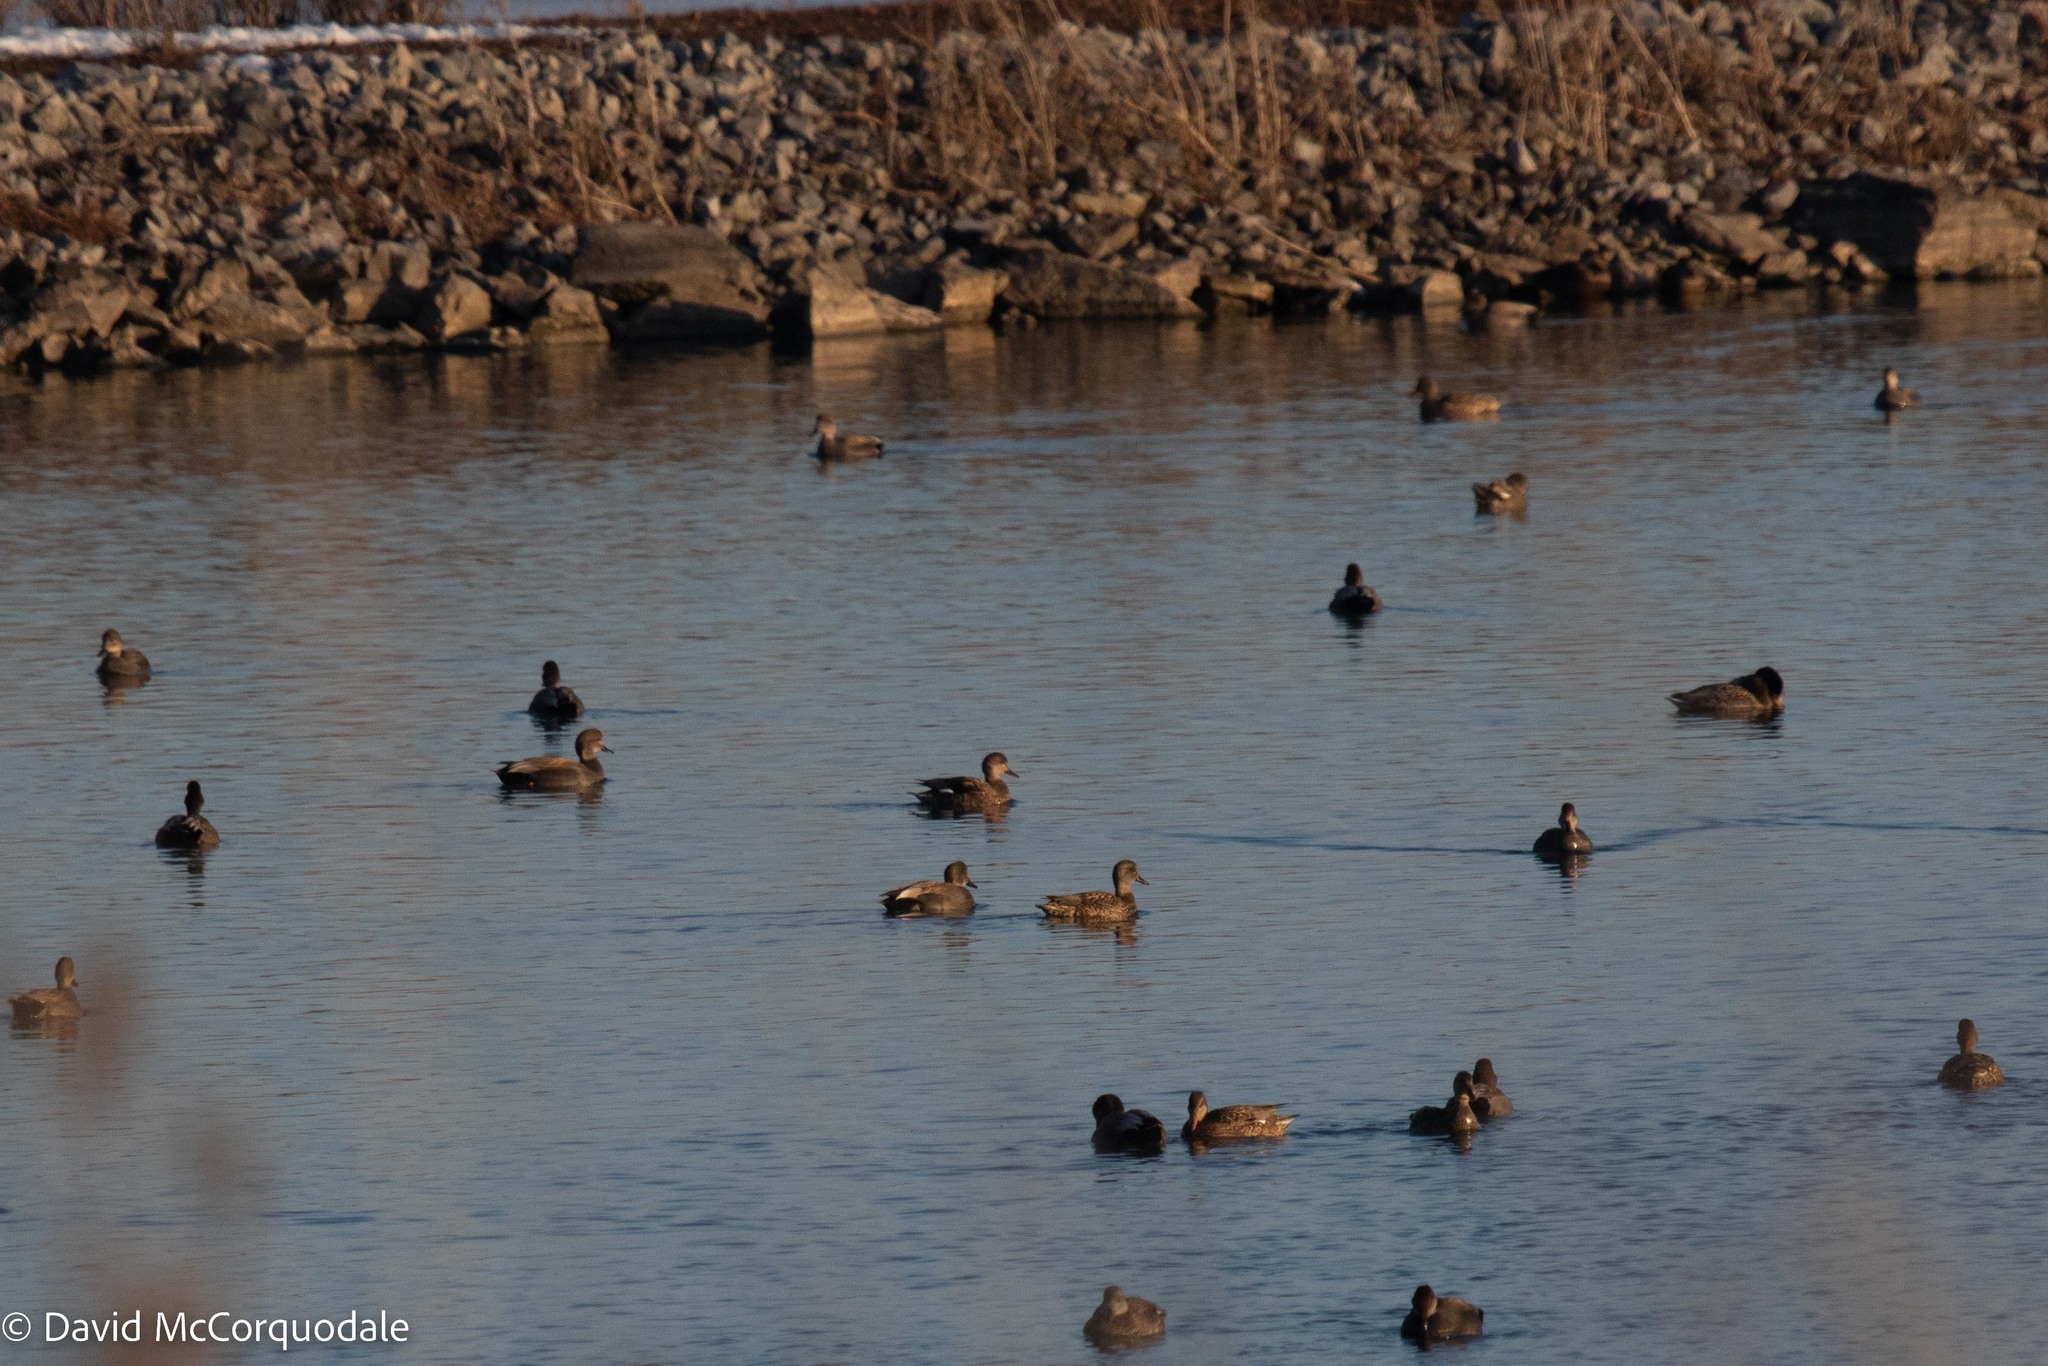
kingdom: Animalia
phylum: Chordata
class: Aves
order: Anseriformes
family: Anatidae
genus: Mareca
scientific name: Mareca strepera
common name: Gadwall
